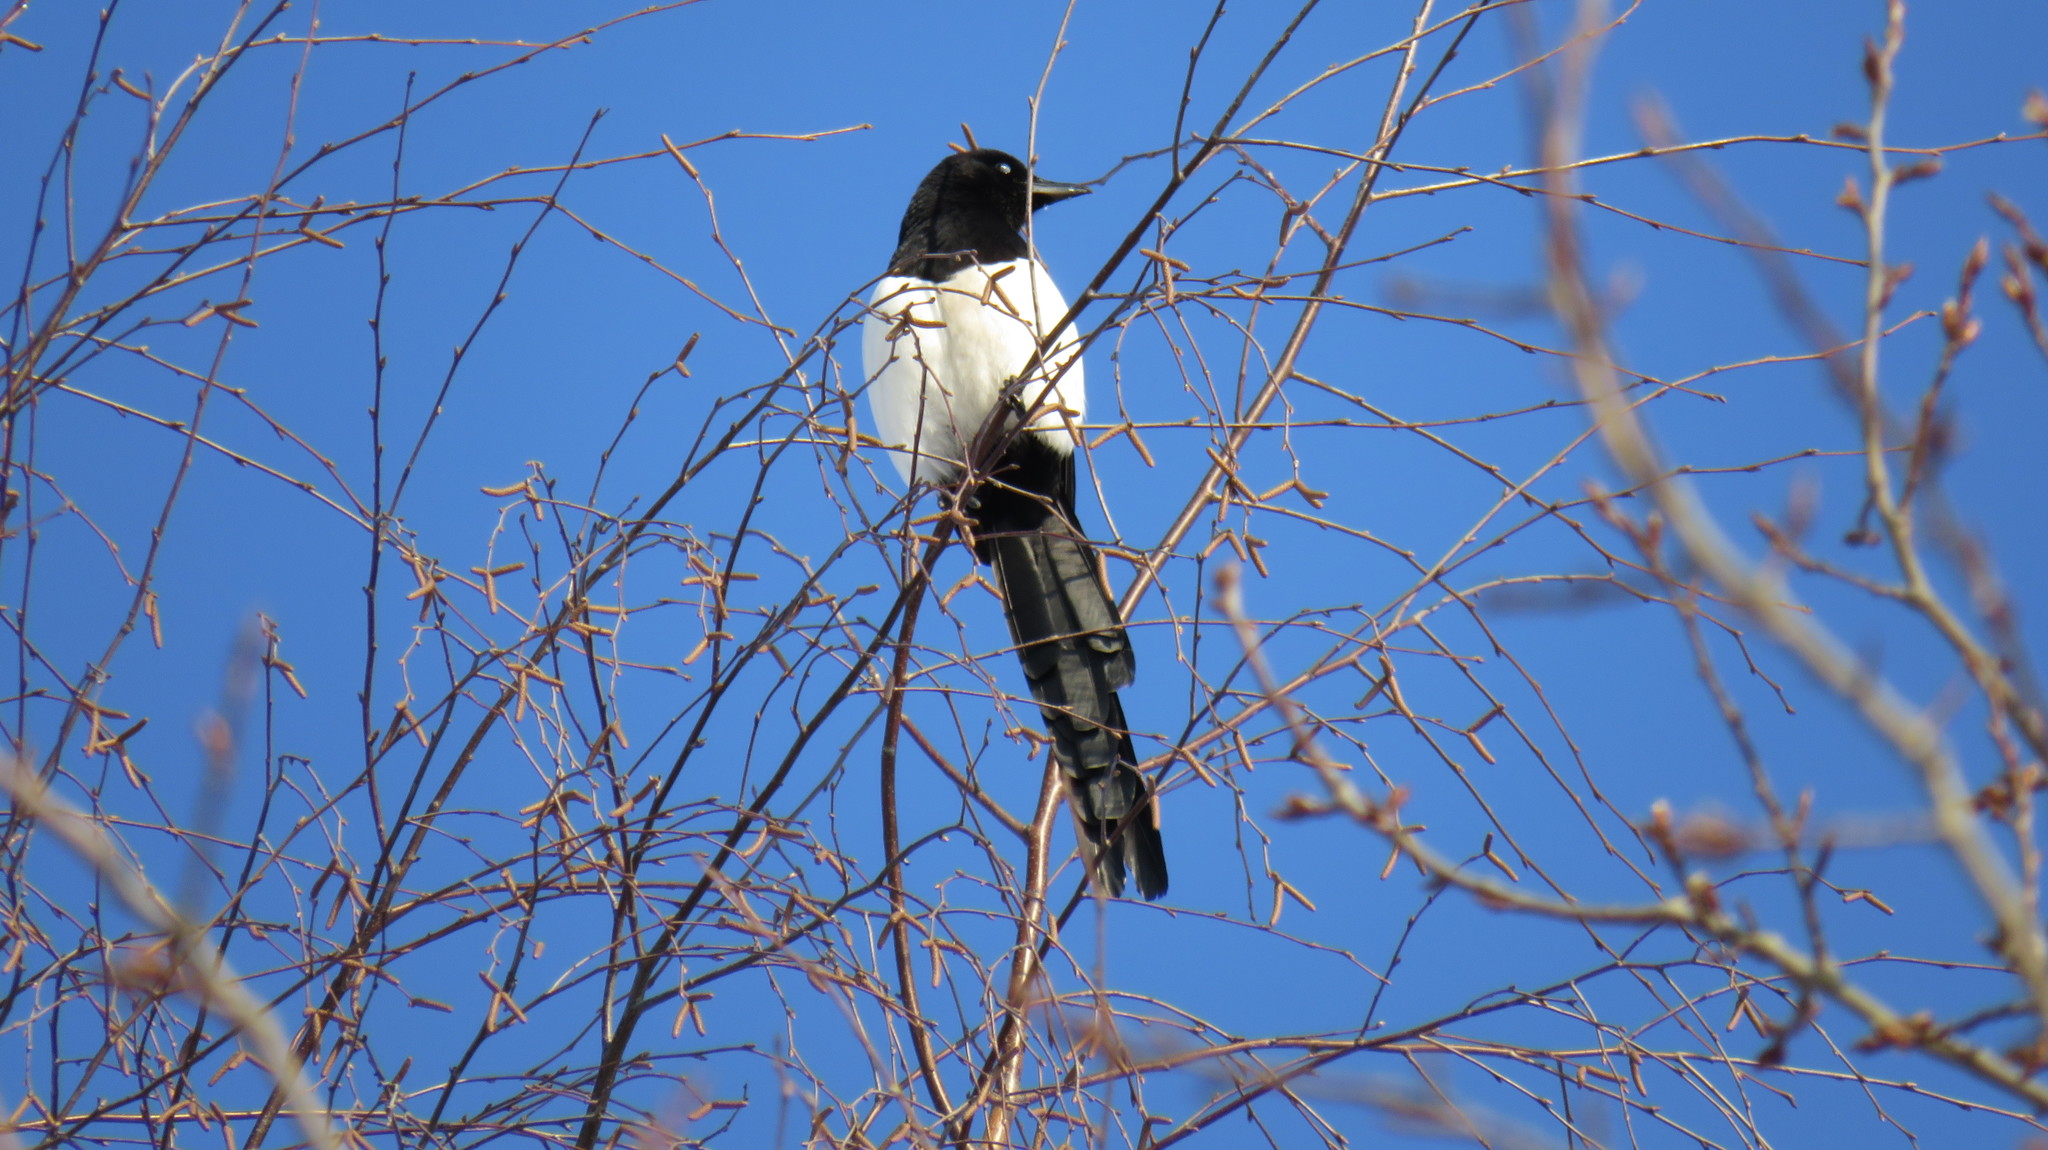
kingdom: Animalia
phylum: Chordata
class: Aves
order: Passeriformes
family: Corvidae
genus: Pica
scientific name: Pica pica
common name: Eurasian magpie
